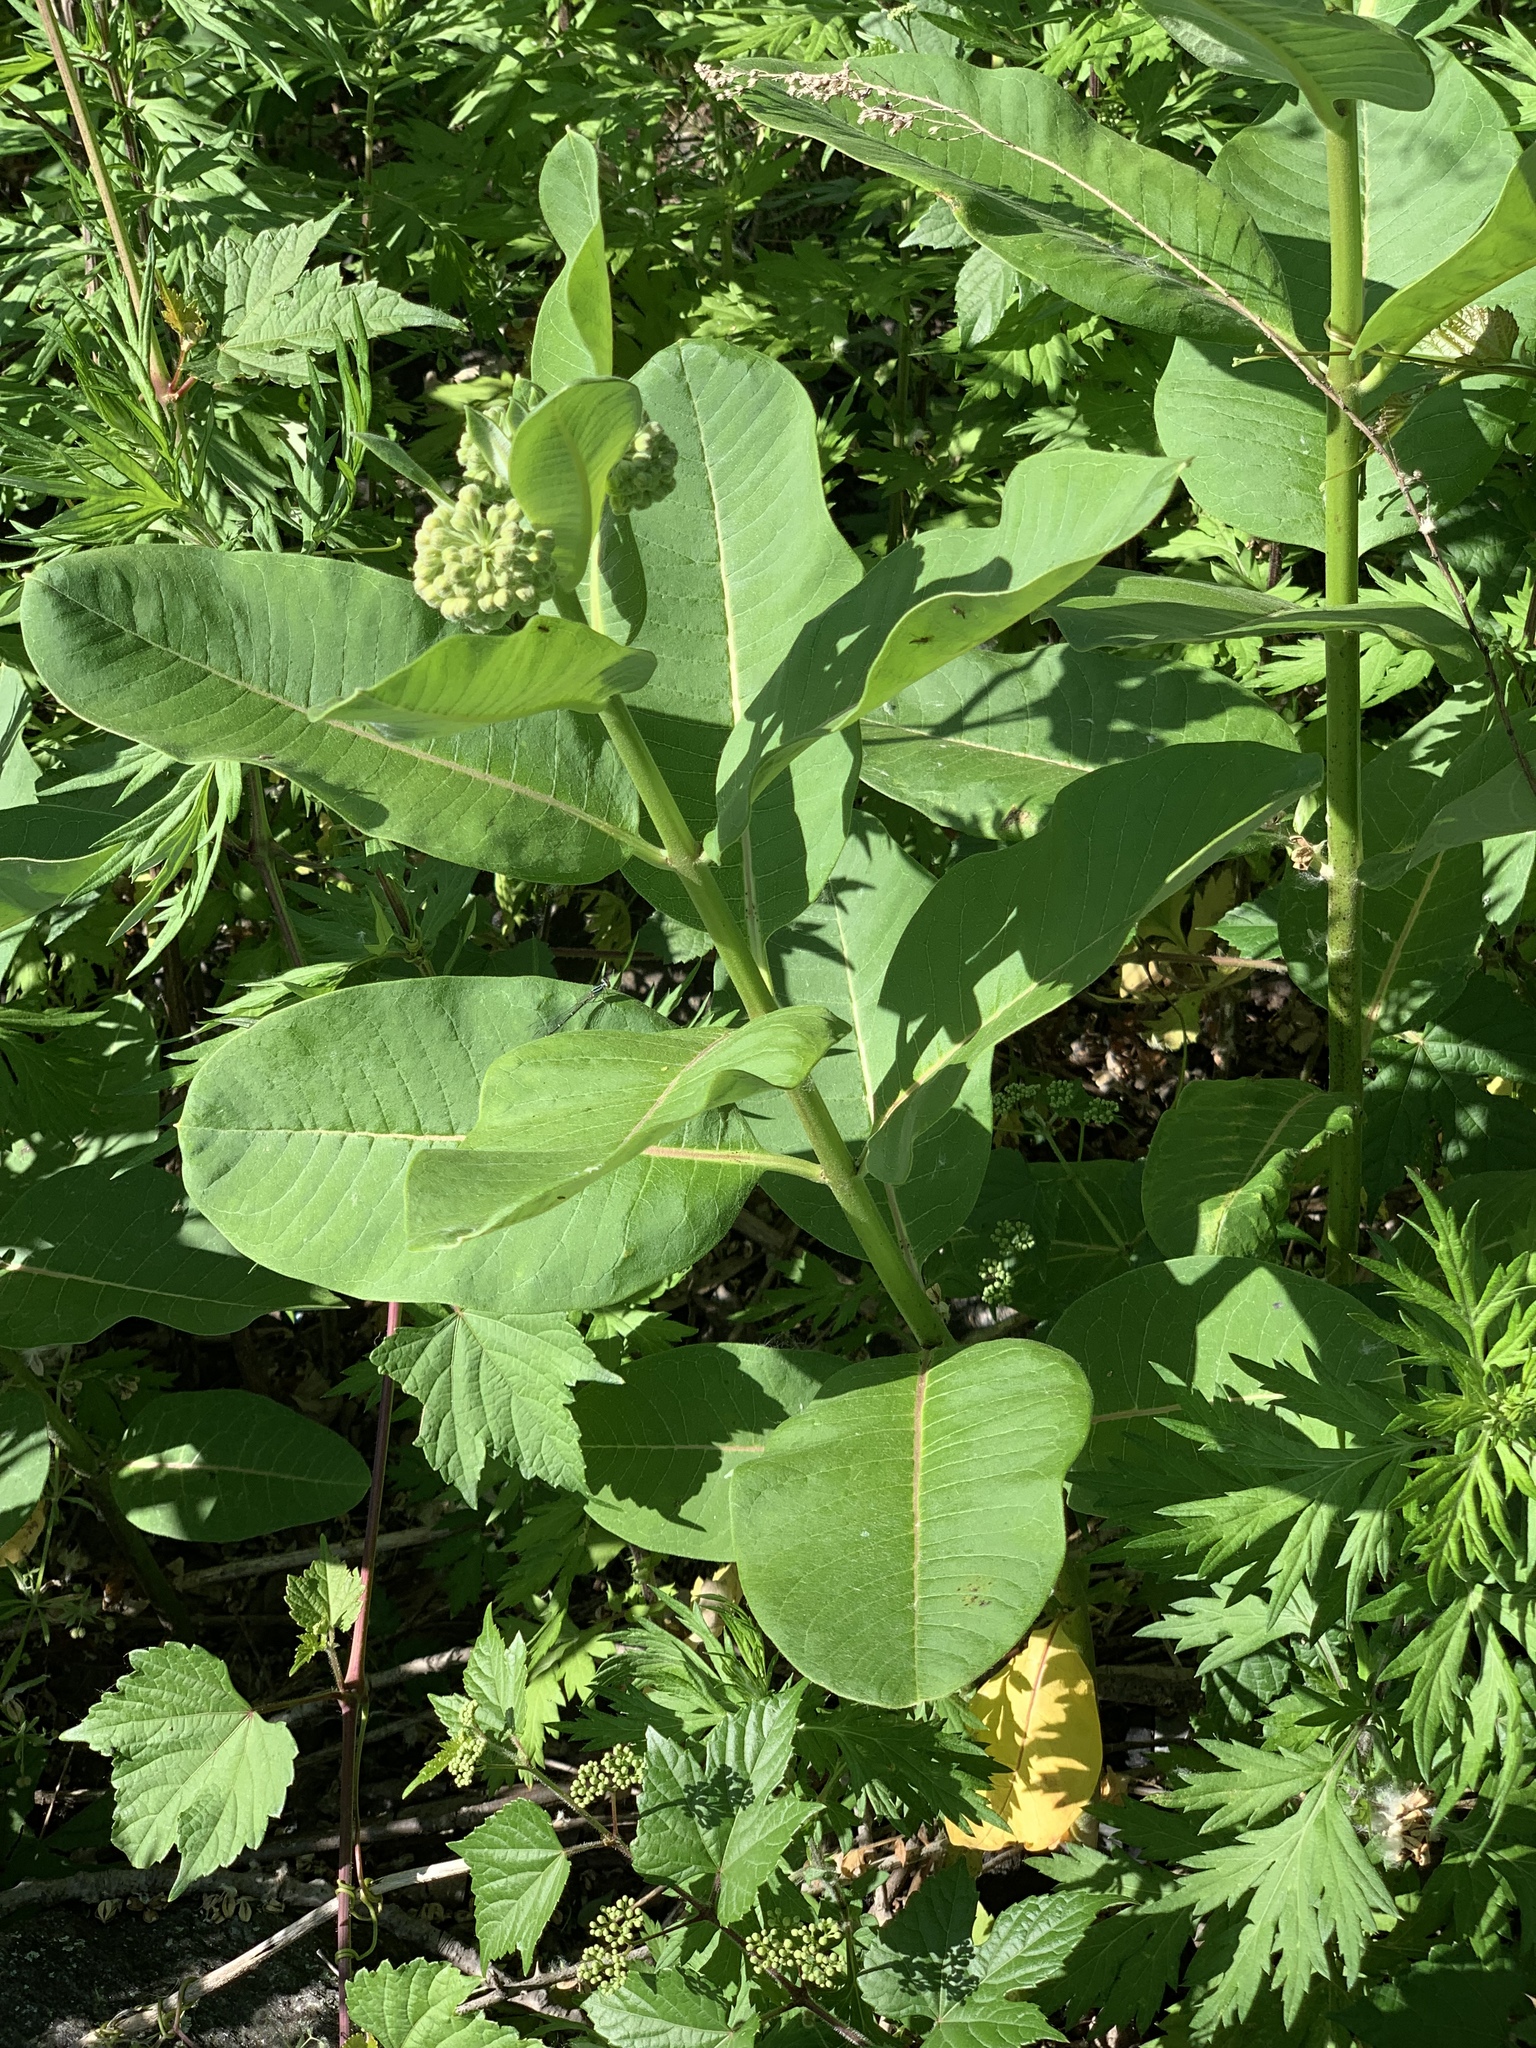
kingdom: Plantae
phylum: Tracheophyta
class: Magnoliopsida
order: Gentianales
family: Apocynaceae
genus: Asclepias
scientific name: Asclepias syriaca
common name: Common milkweed
